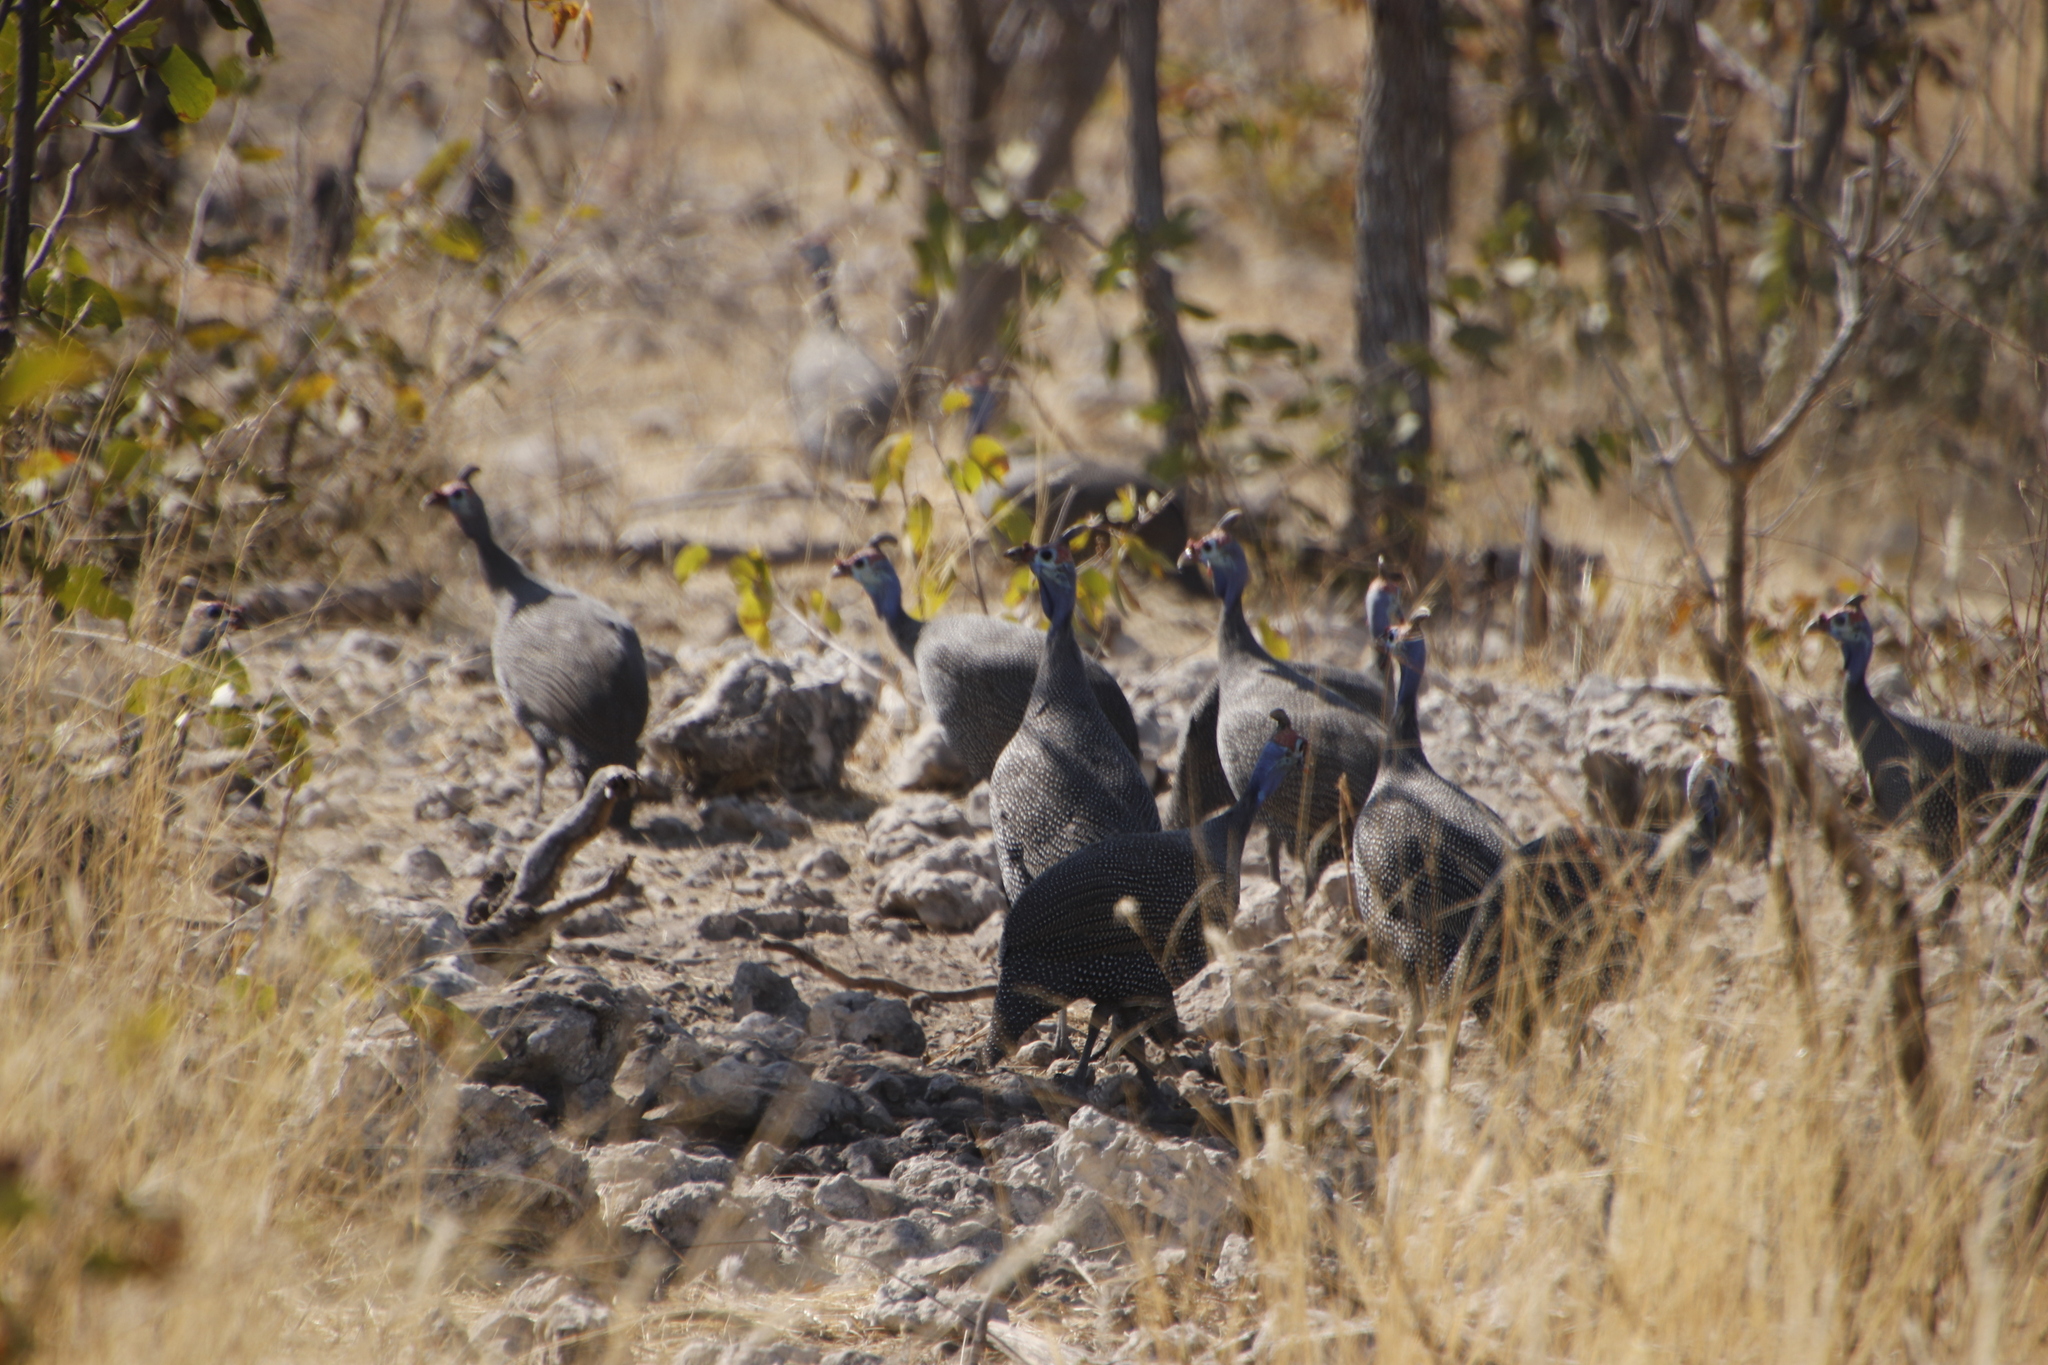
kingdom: Animalia
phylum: Chordata
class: Aves
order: Galliformes
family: Numididae
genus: Numida
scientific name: Numida meleagris
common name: Helmeted guineafowl
